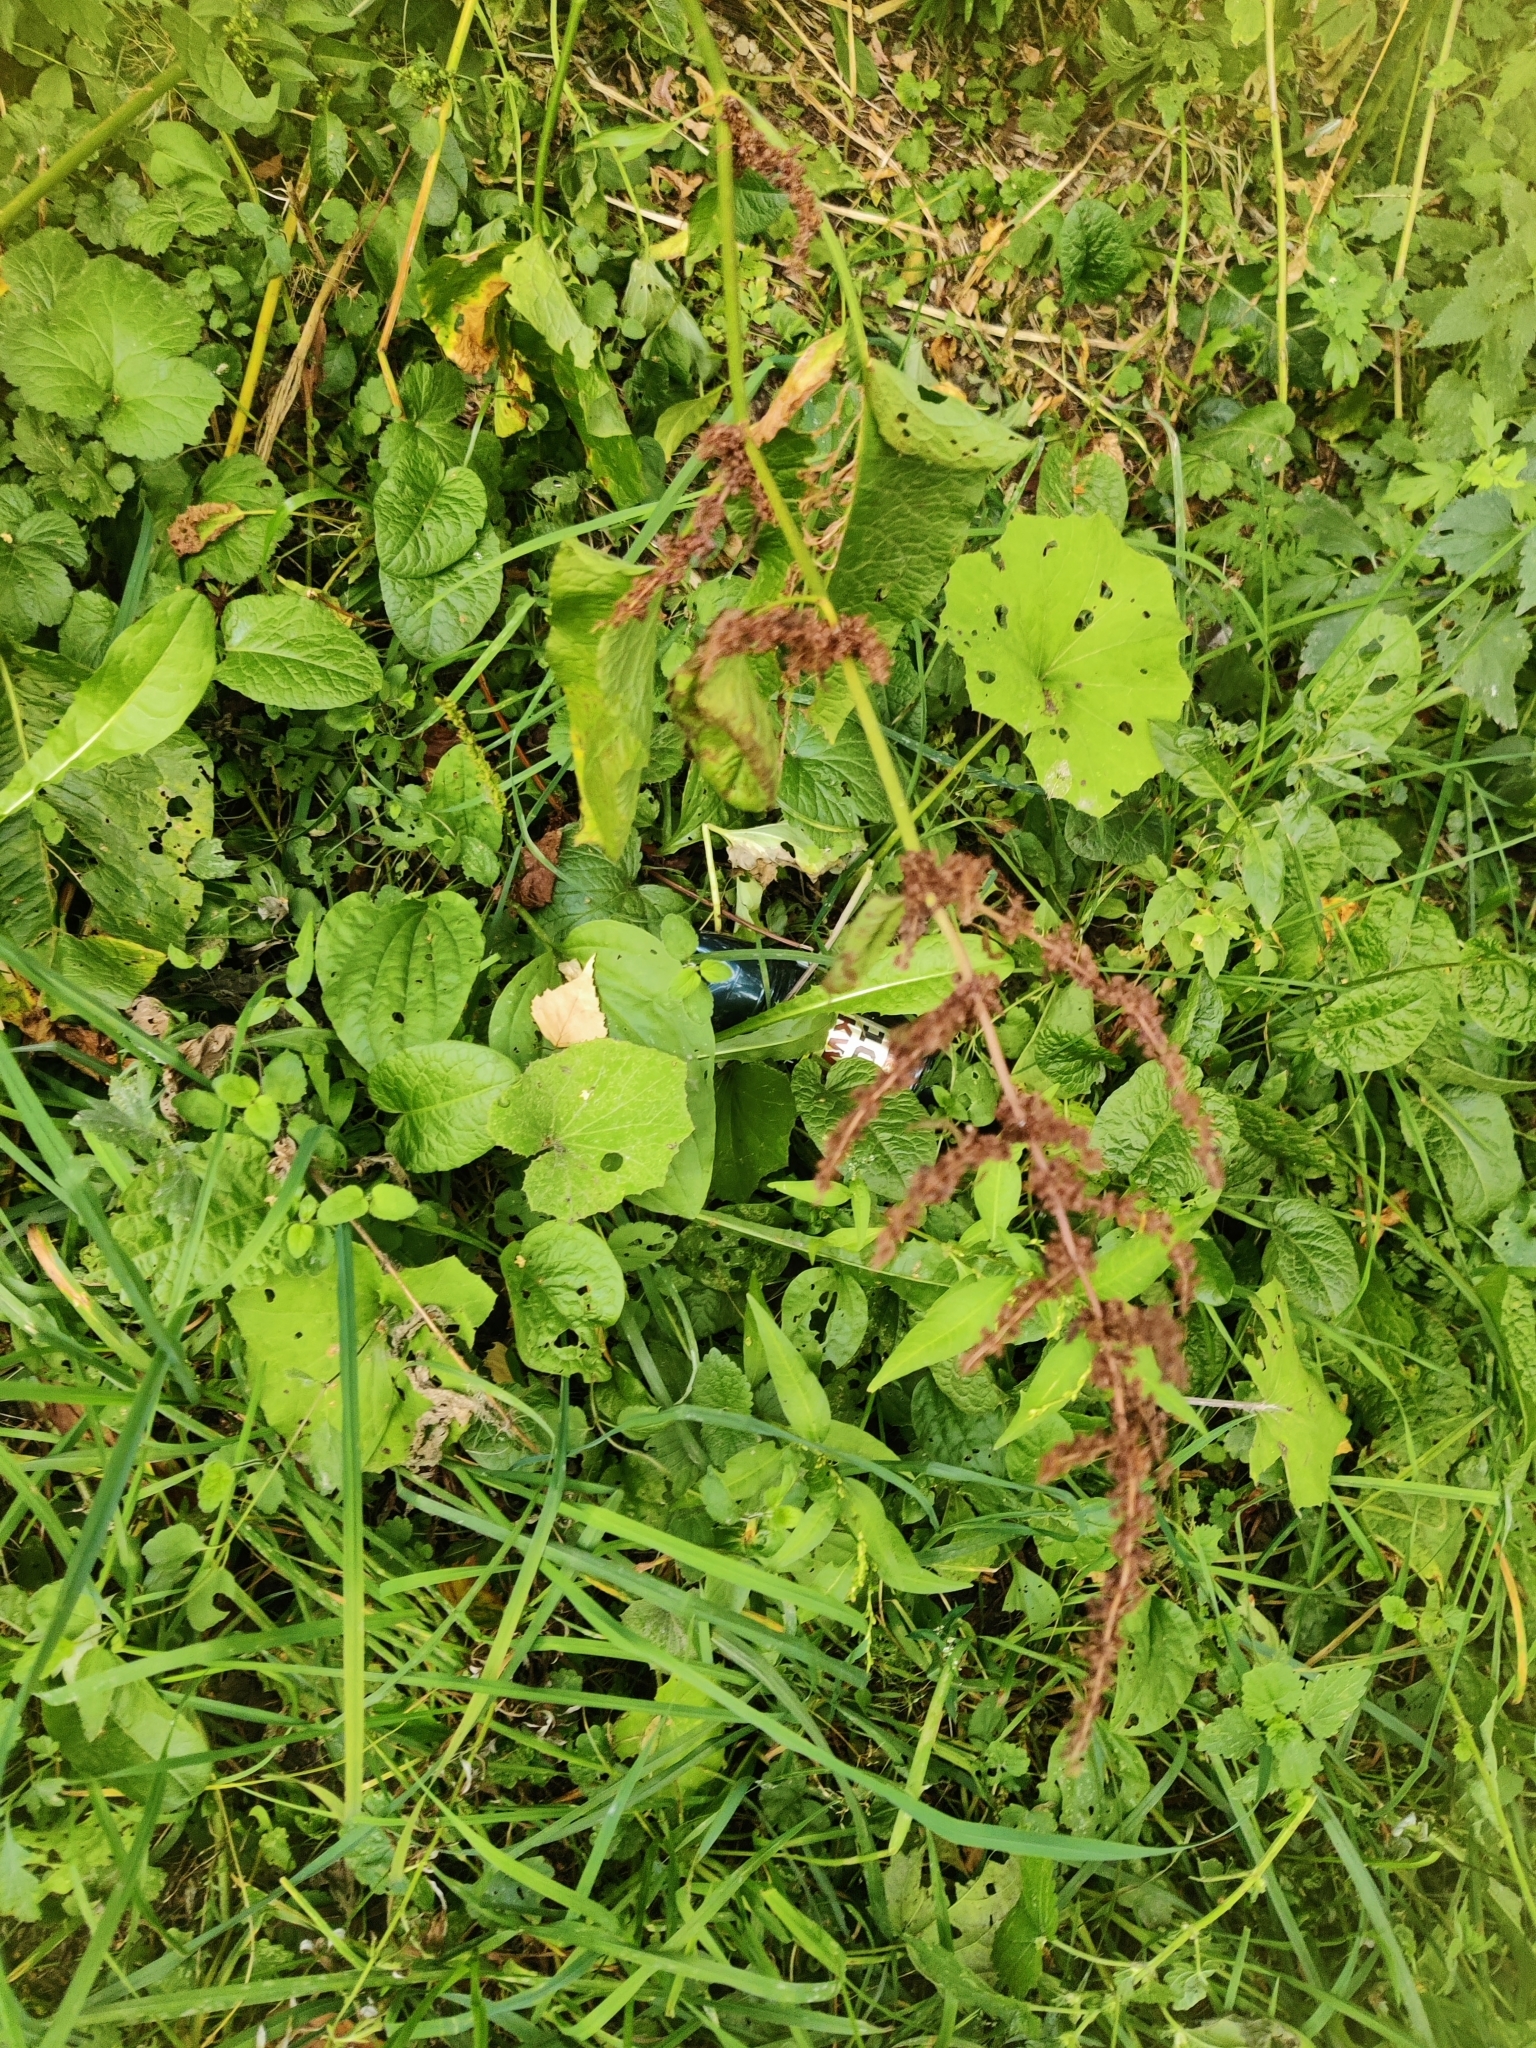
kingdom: Plantae
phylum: Tracheophyta
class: Magnoliopsida
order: Caryophyllales
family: Polygonaceae
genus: Rumex
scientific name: Rumex obtusifolius
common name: Bitter dock
